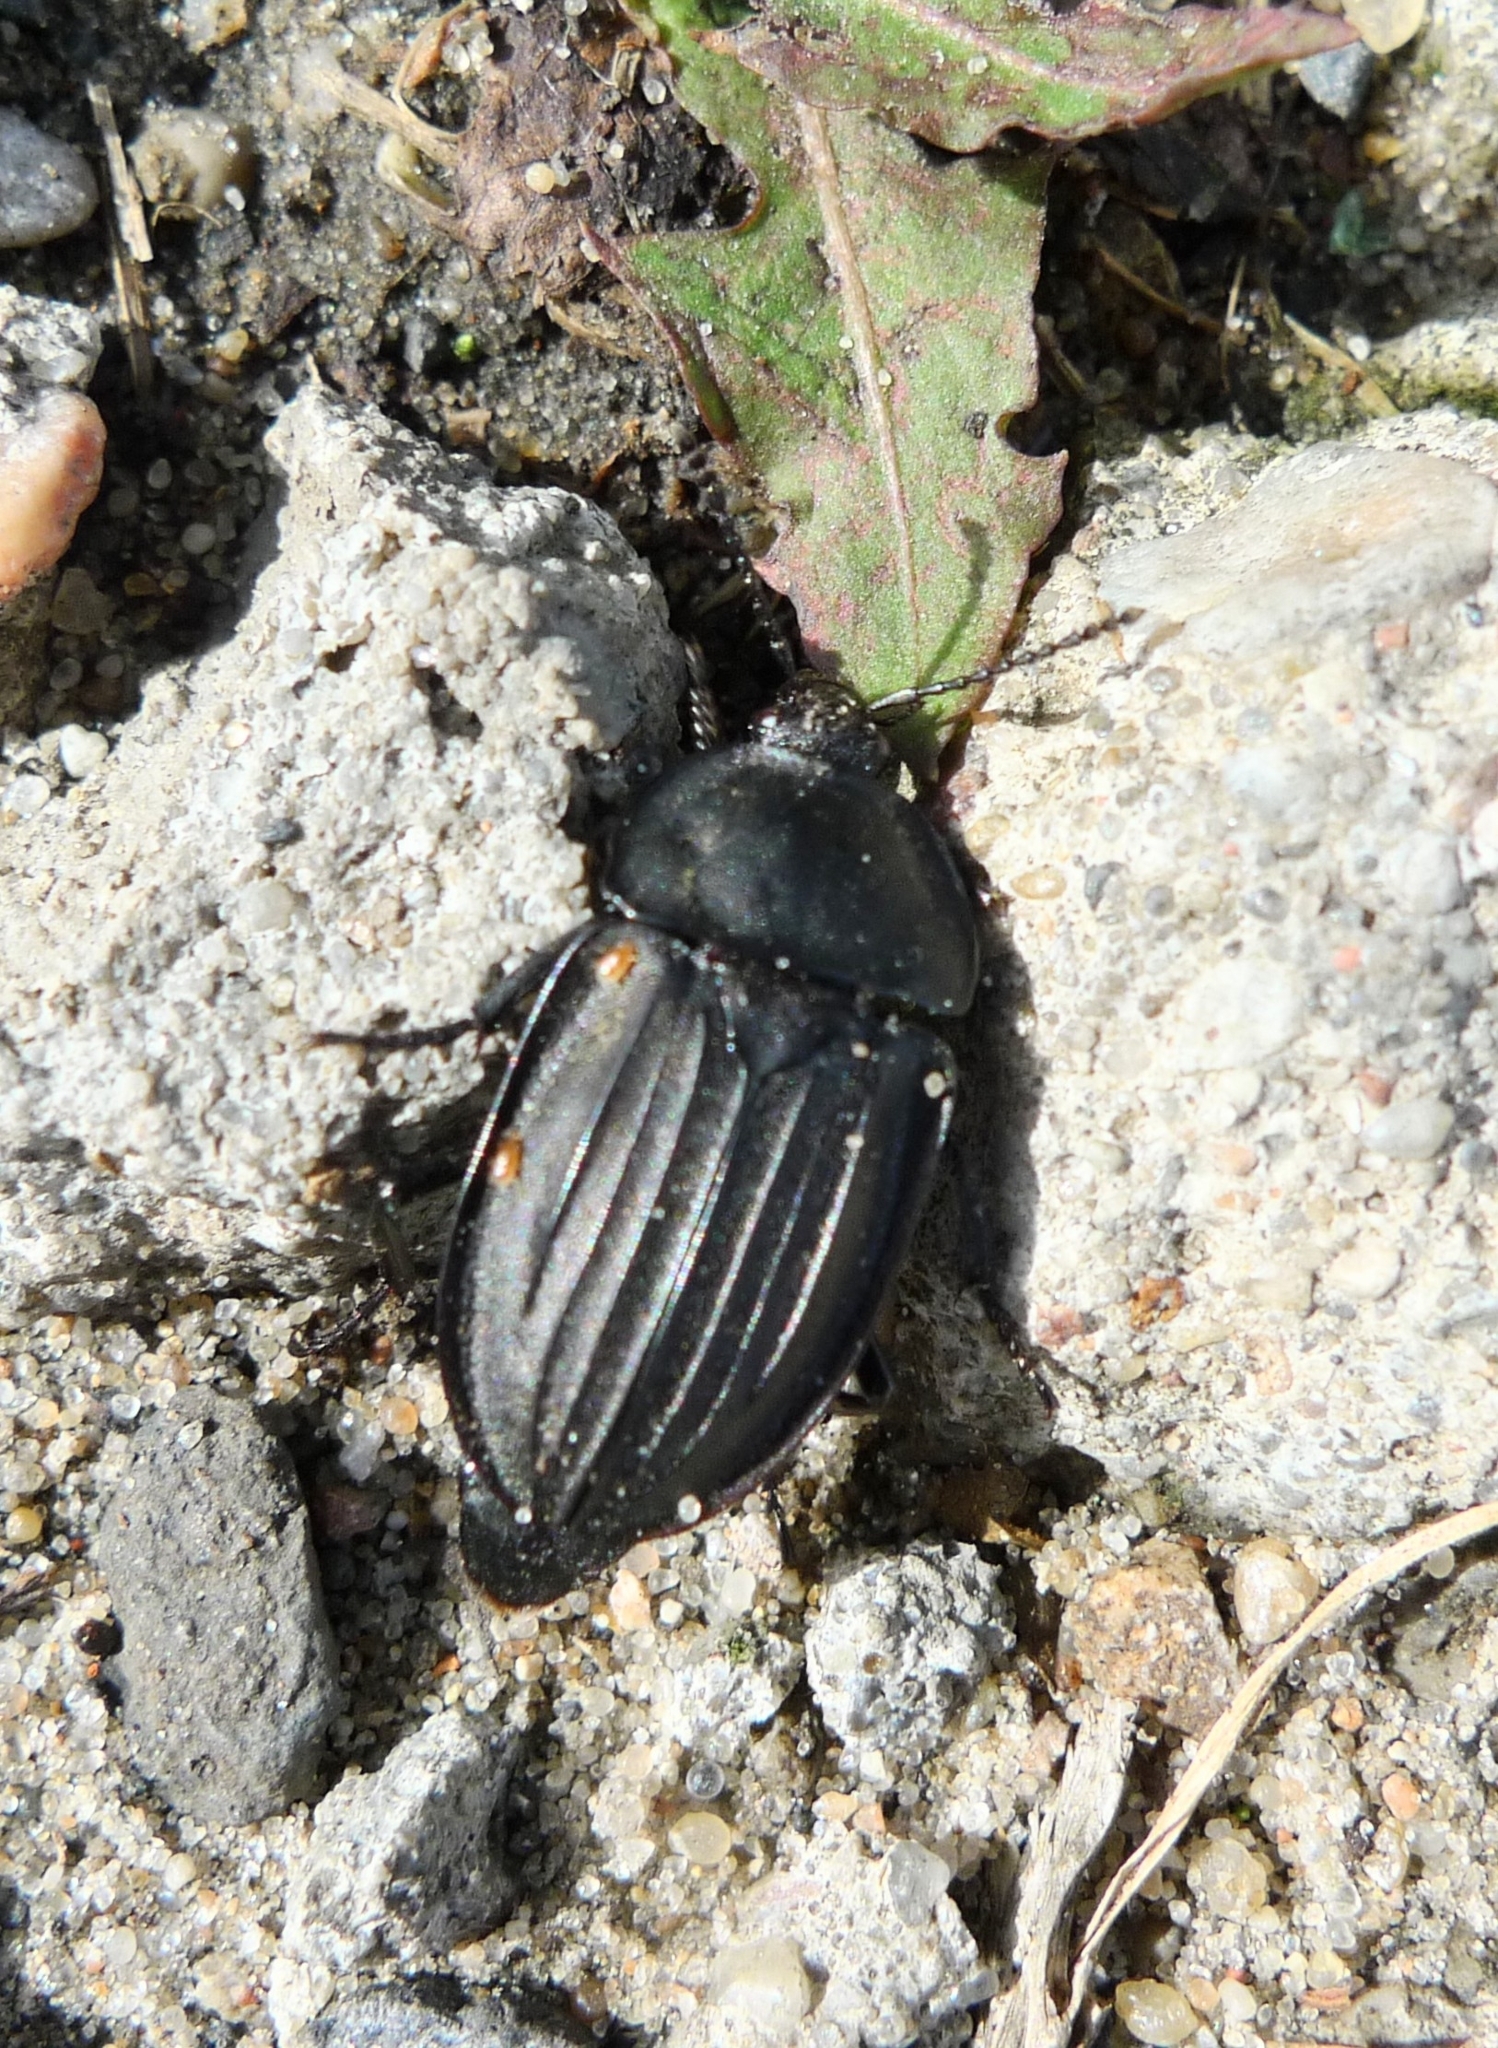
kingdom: Animalia
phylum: Arthropoda
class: Insecta
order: Coleoptera
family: Staphylinidae
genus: Silpha
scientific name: Silpha carinata
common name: Silphid beetle
